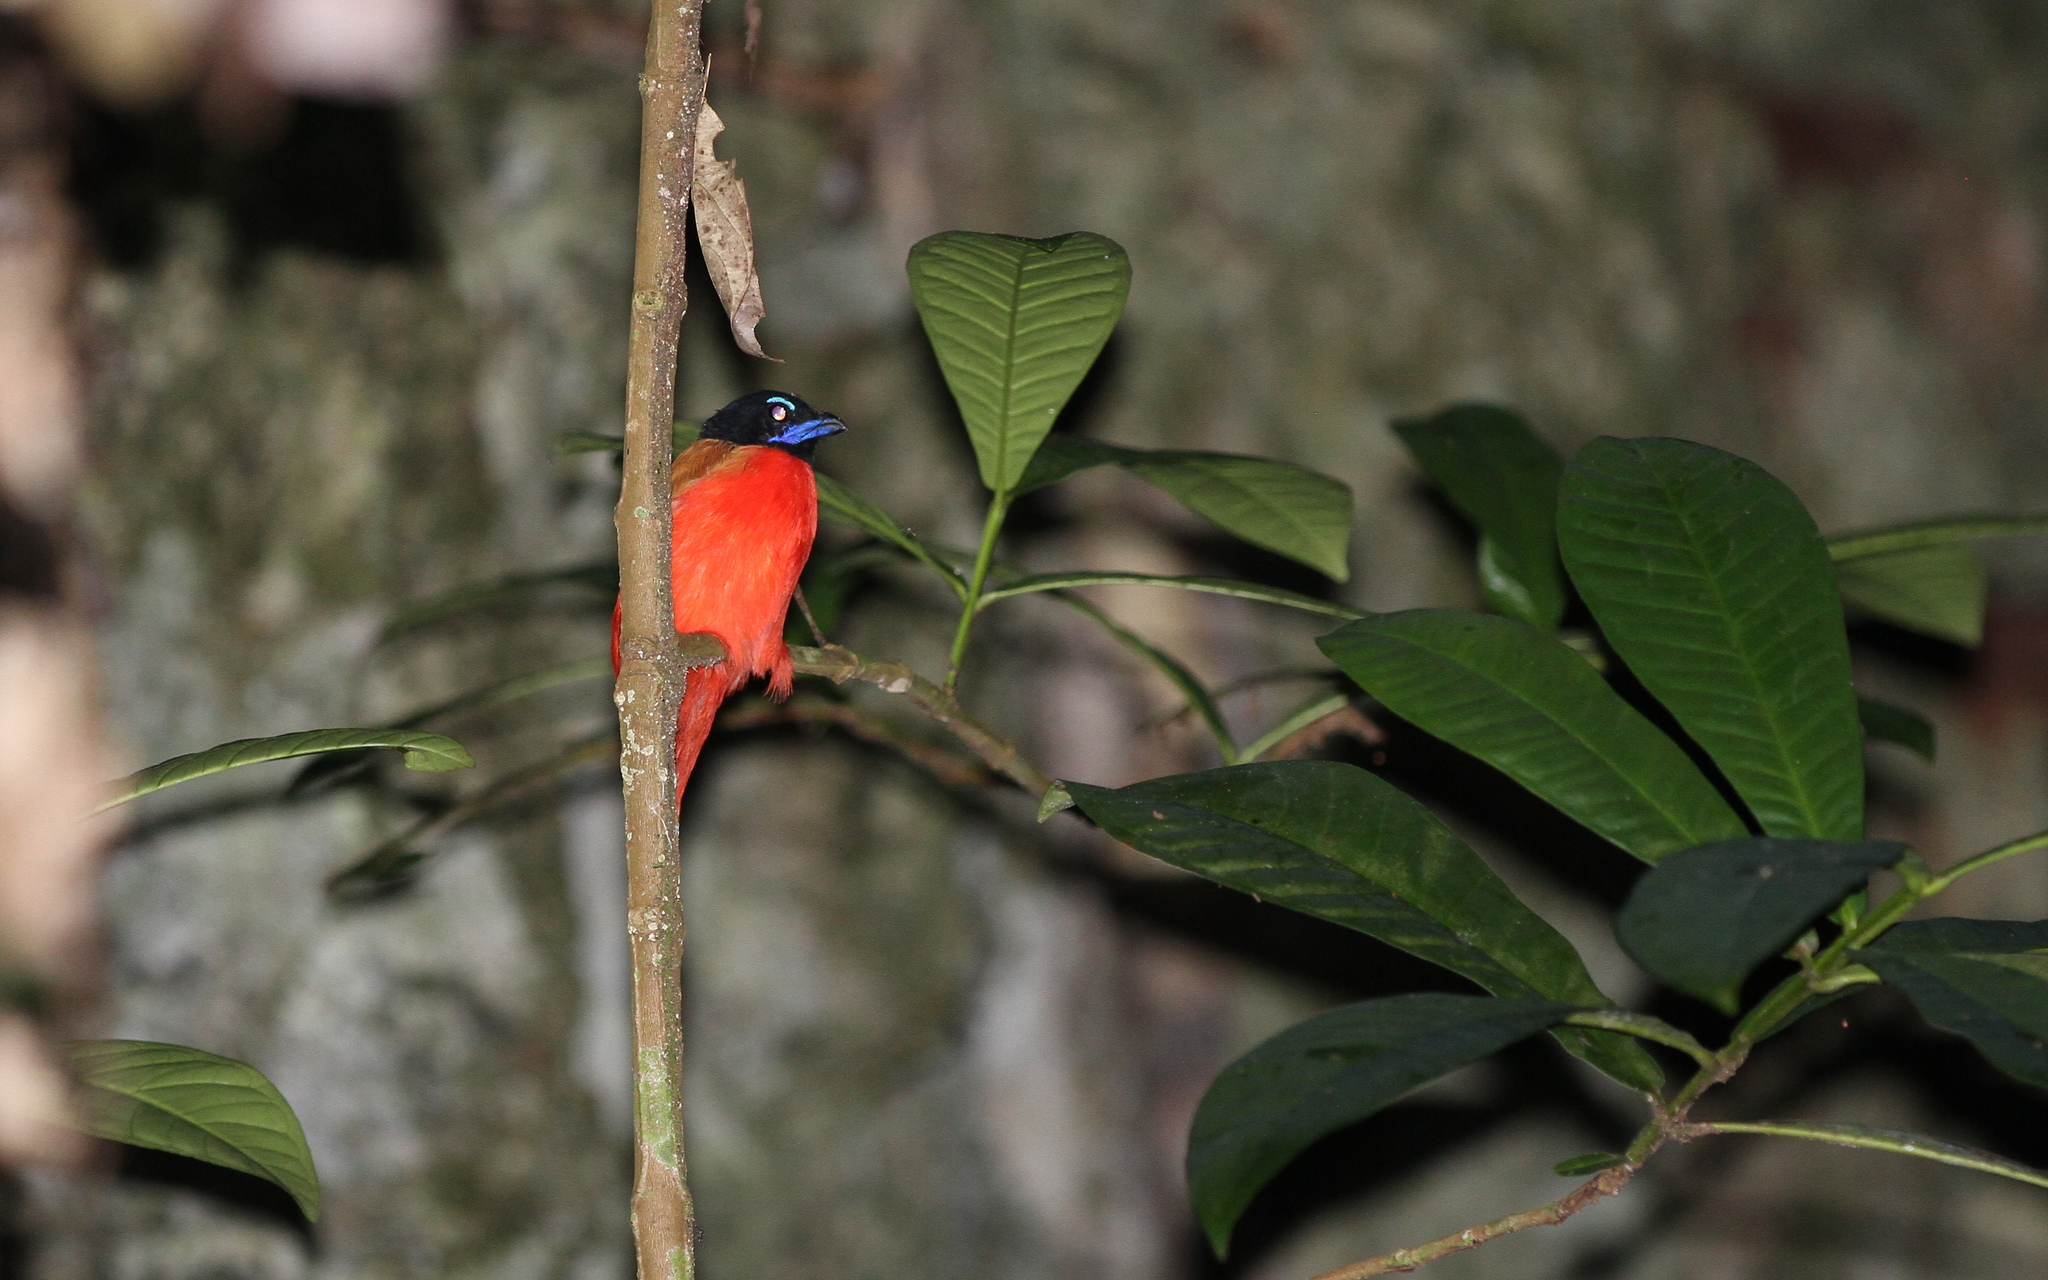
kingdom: Animalia
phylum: Chordata
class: Aves
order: Trogoniformes
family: Trogonidae
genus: Harpactes
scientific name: Harpactes duvaucelii
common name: Scarlet-rumped trogon
